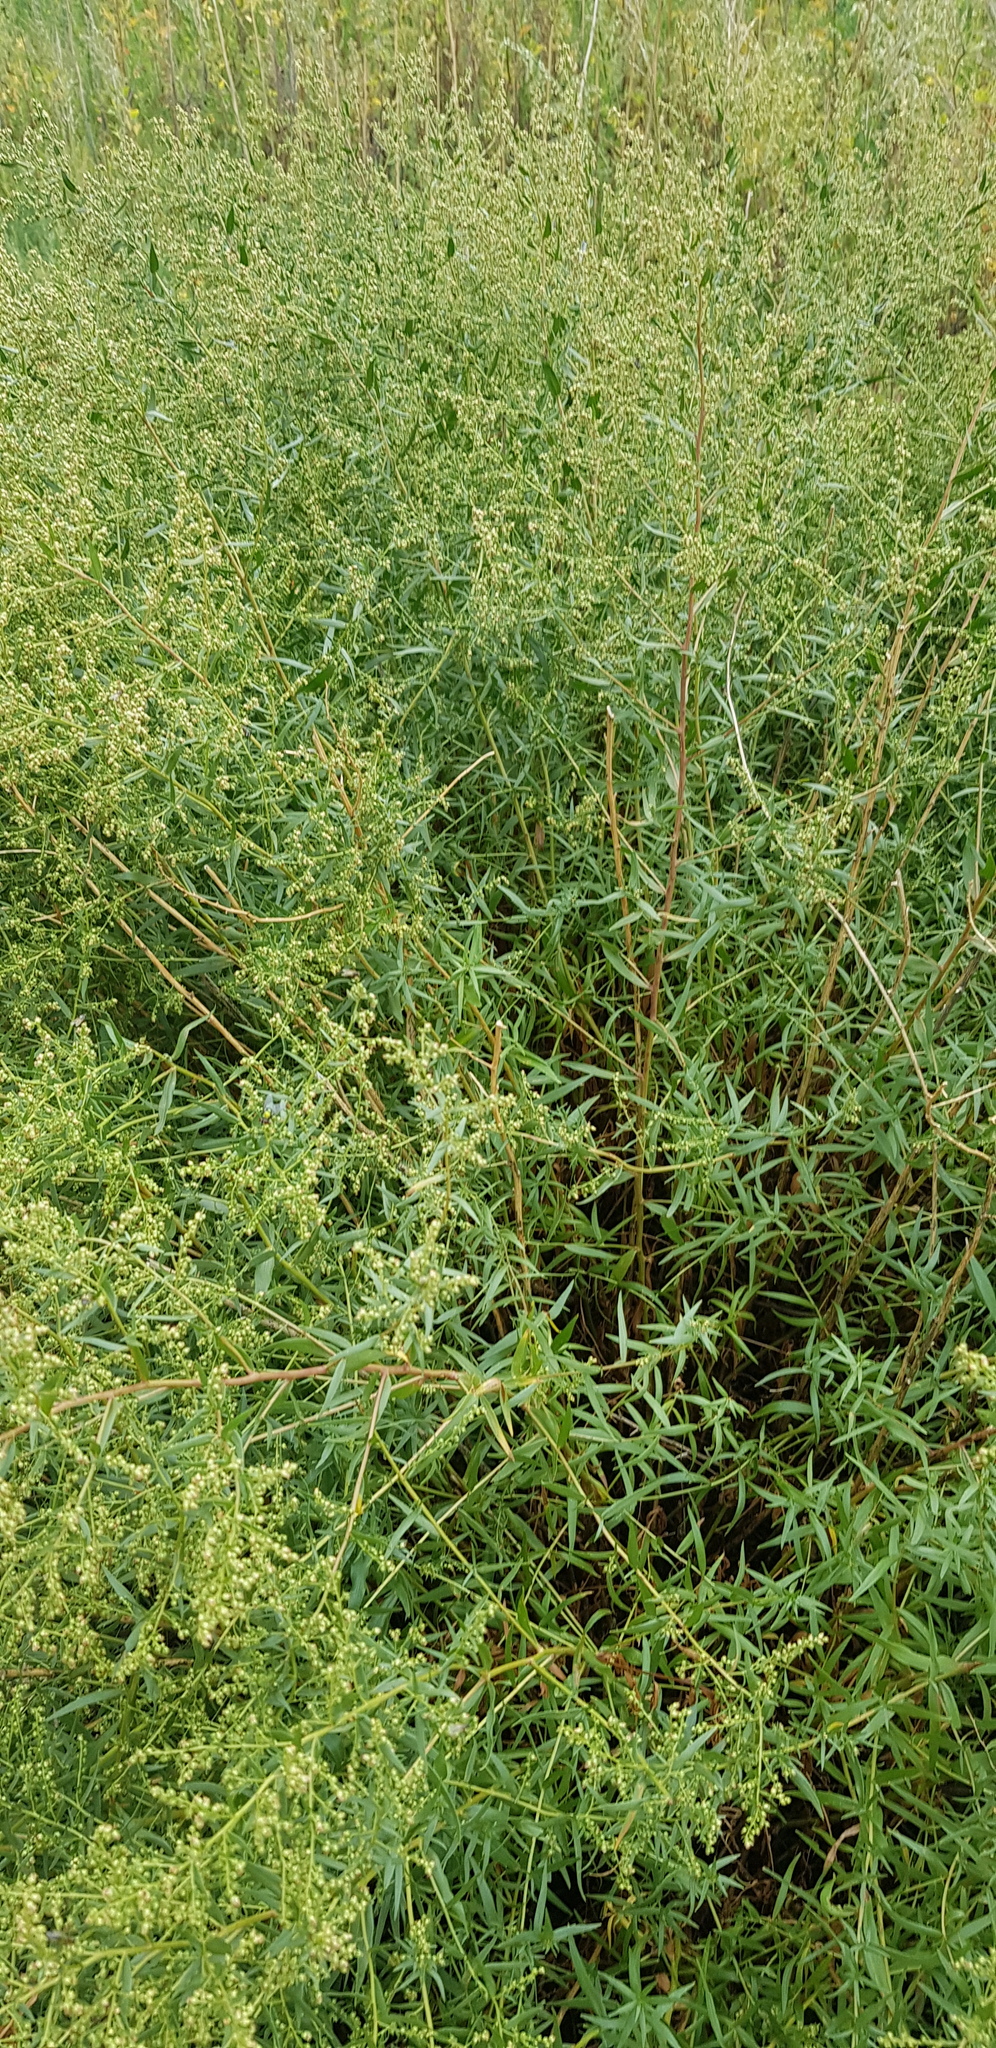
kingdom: Plantae
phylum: Tracheophyta
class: Magnoliopsida
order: Asterales
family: Asteraceae
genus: Artemisia
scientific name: Artemisia dracunculus
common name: Tarragon
